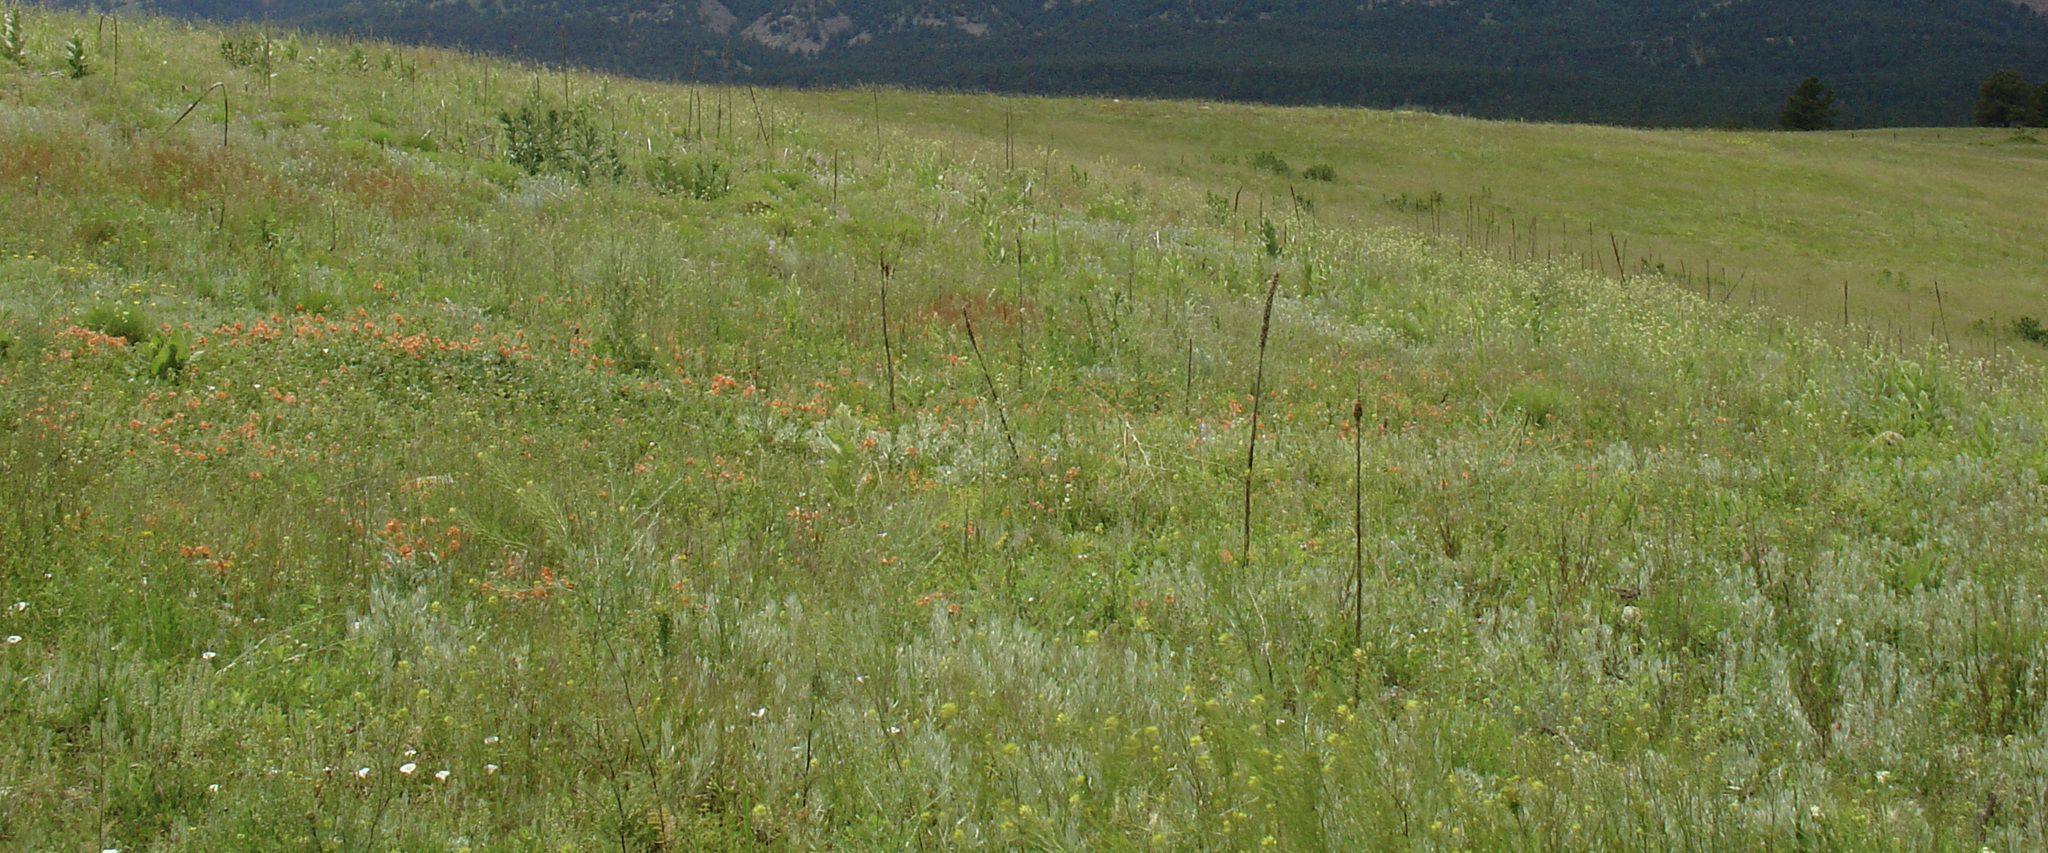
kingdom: Plantae
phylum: Tracheophyta
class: Magnoliopsida
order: Lamiales
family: Scrophulariaceae
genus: Verbascum
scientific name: Verbascum thapsus
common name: Common mullein
